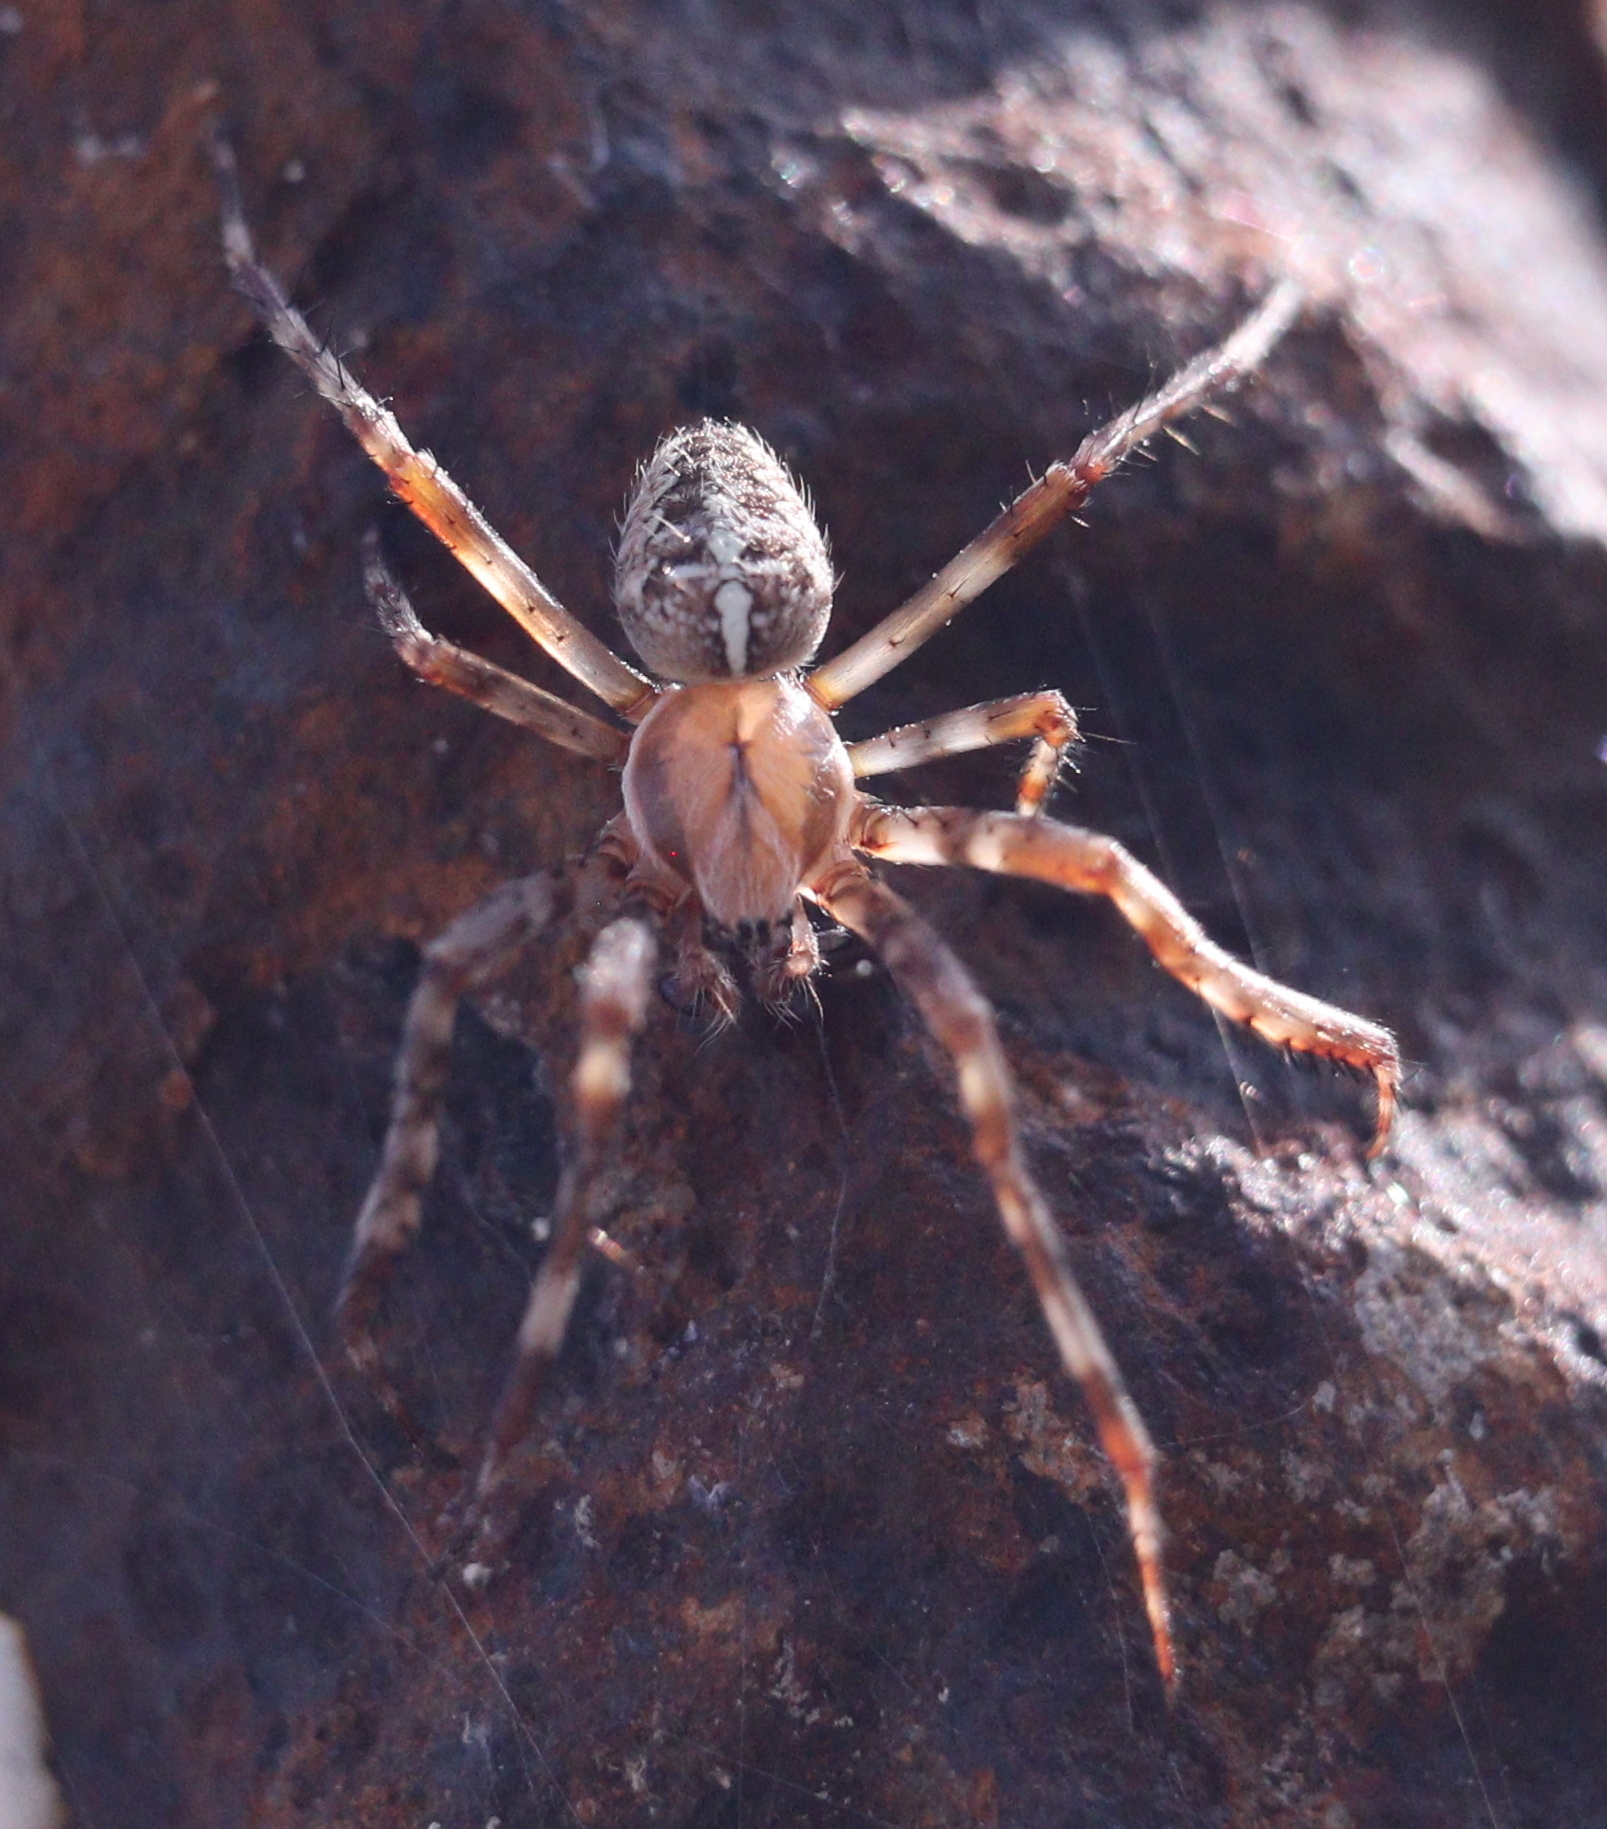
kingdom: Animalia
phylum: Arthropoda
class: Arachnida
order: Araneae
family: Araneidae
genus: Araneus
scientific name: Araneus diadematus
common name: Cross orbweaver
